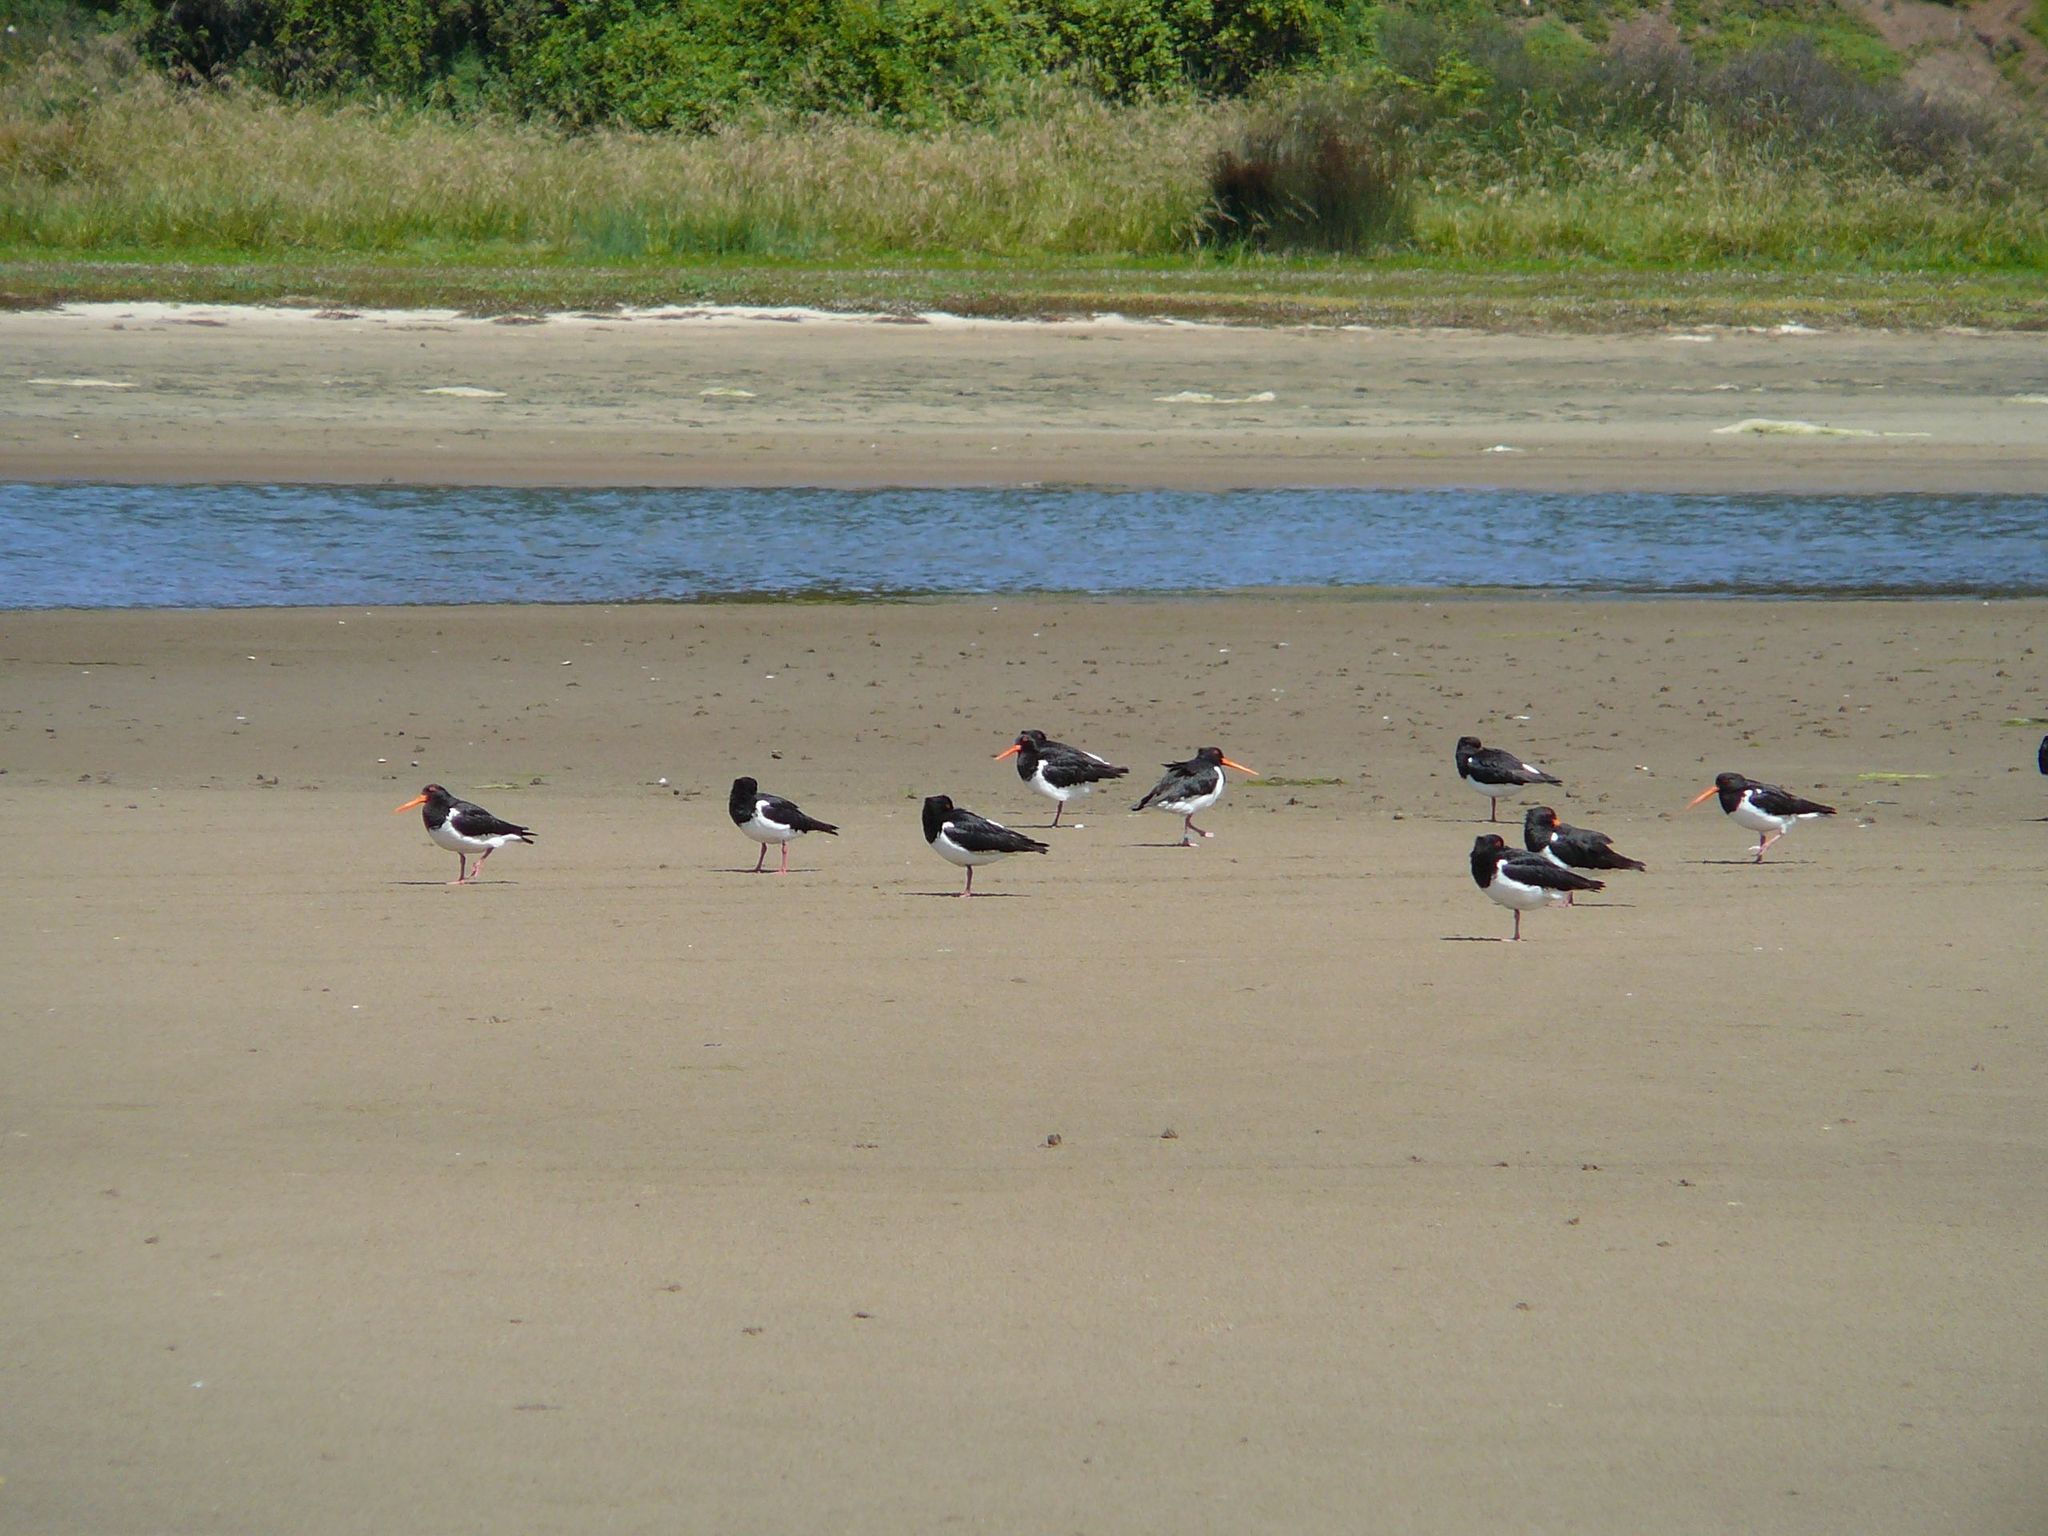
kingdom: Animalia
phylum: Chordata
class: Aves
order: Charadriiformes
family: Haematopodidae
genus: Haematopus
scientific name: Haematopus finschi
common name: South island oystercatcher
